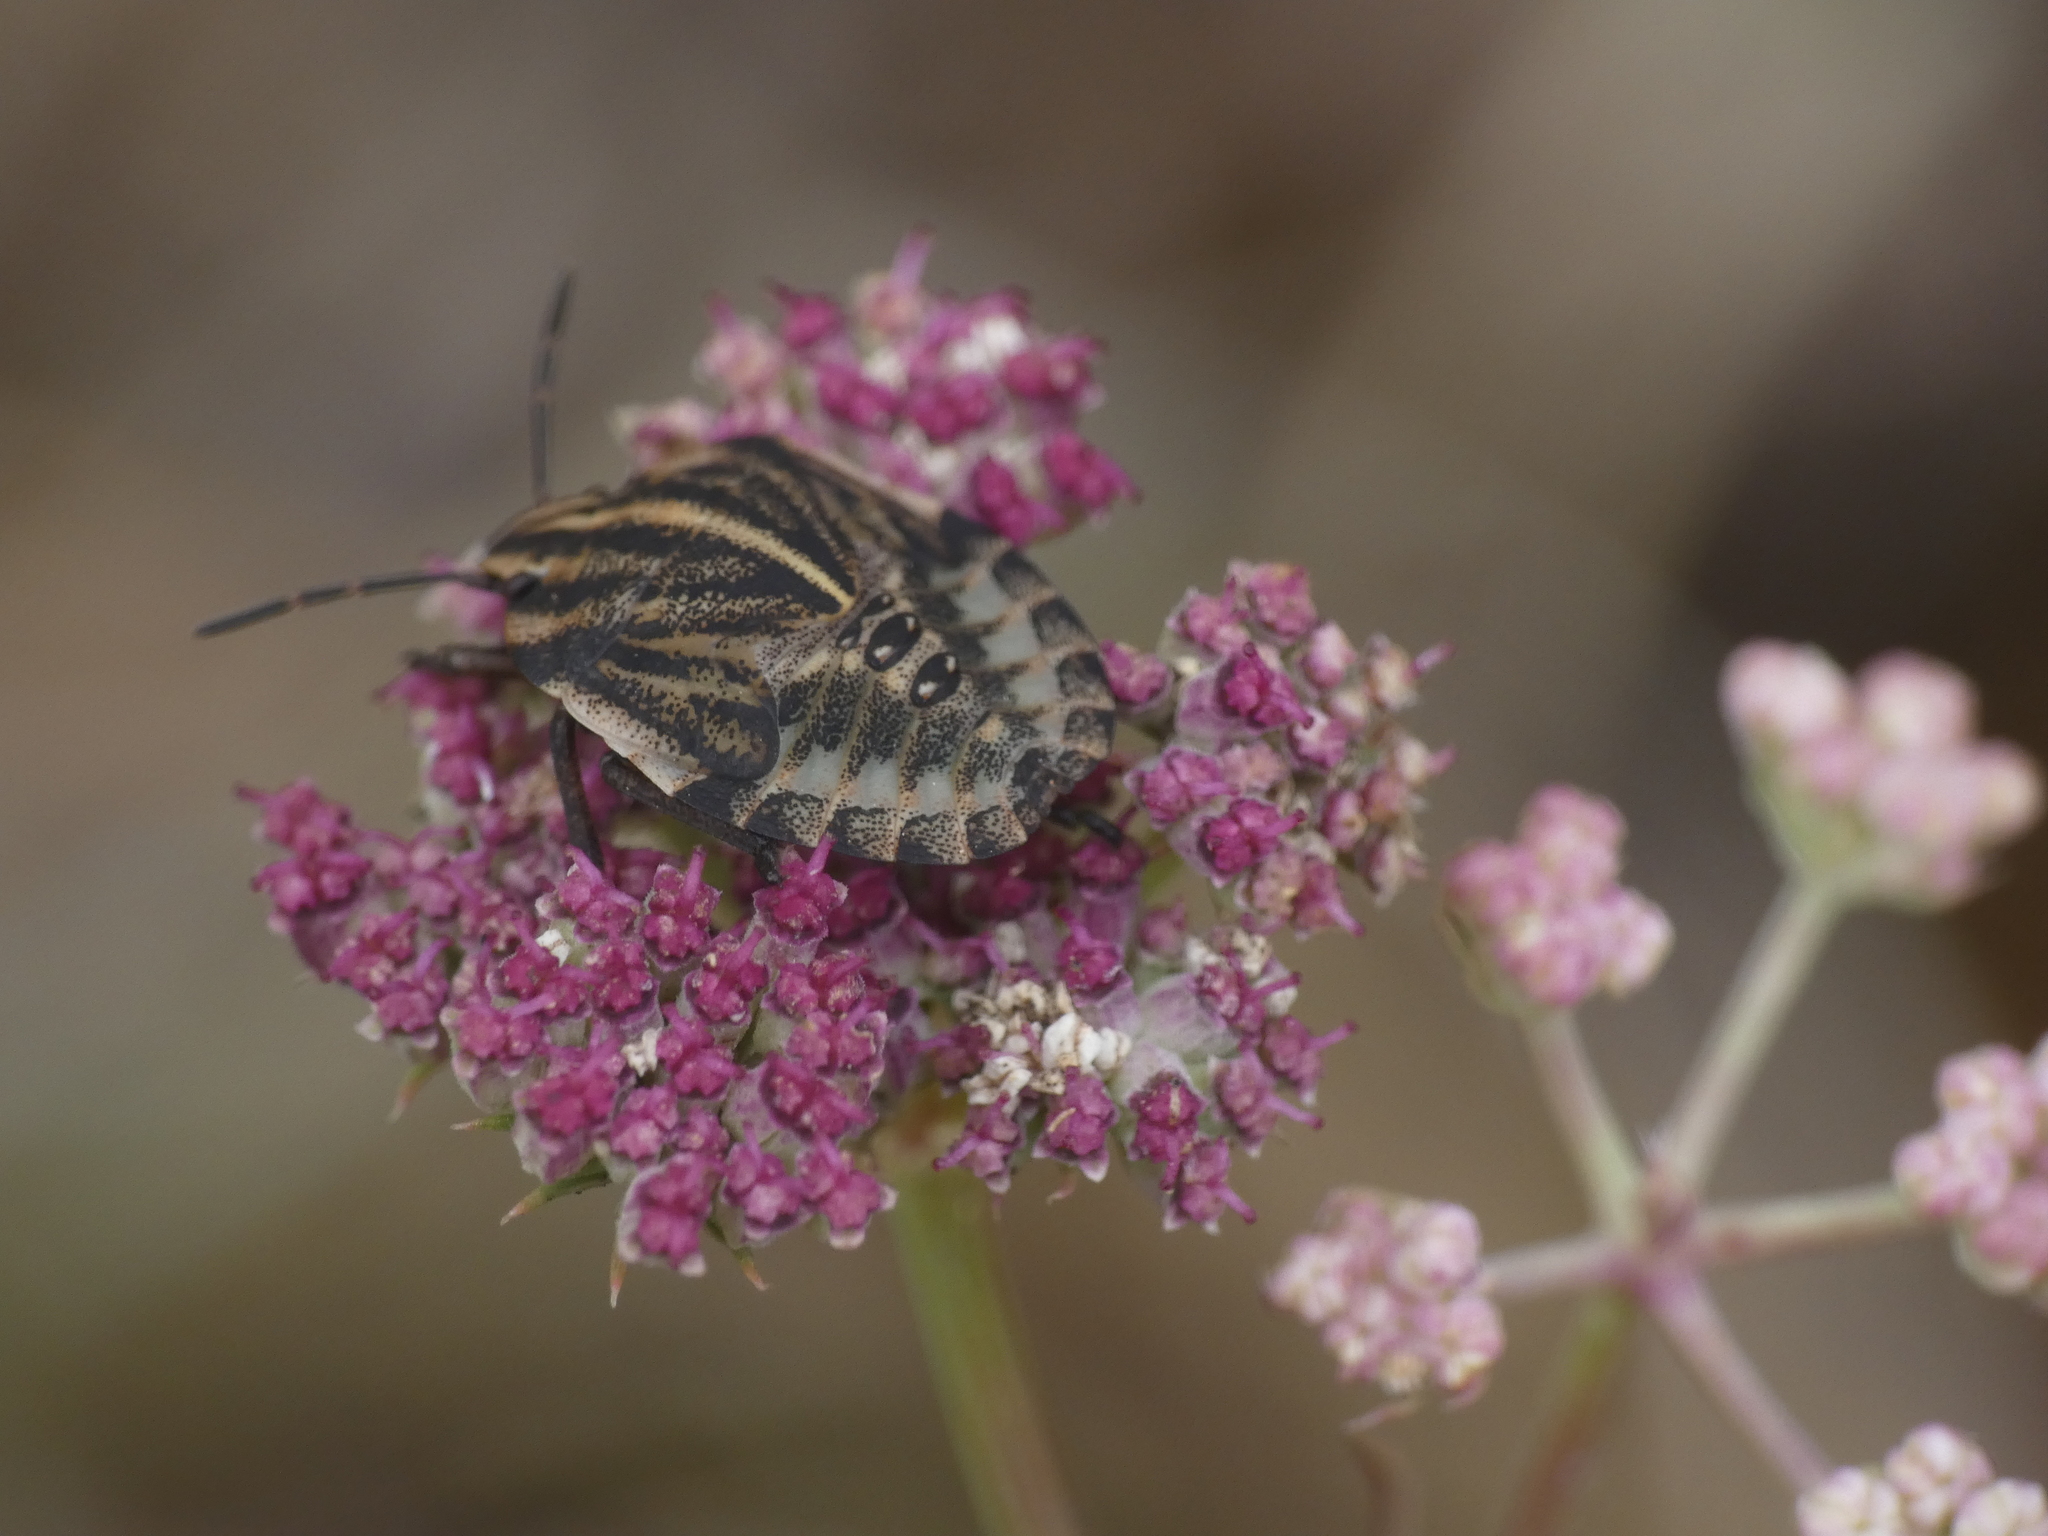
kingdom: Animalia
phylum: Arthropoda
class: Insecta
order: Hemiptera
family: Pentatomidae
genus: Graphosoma
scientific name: Graphosoma italicum
